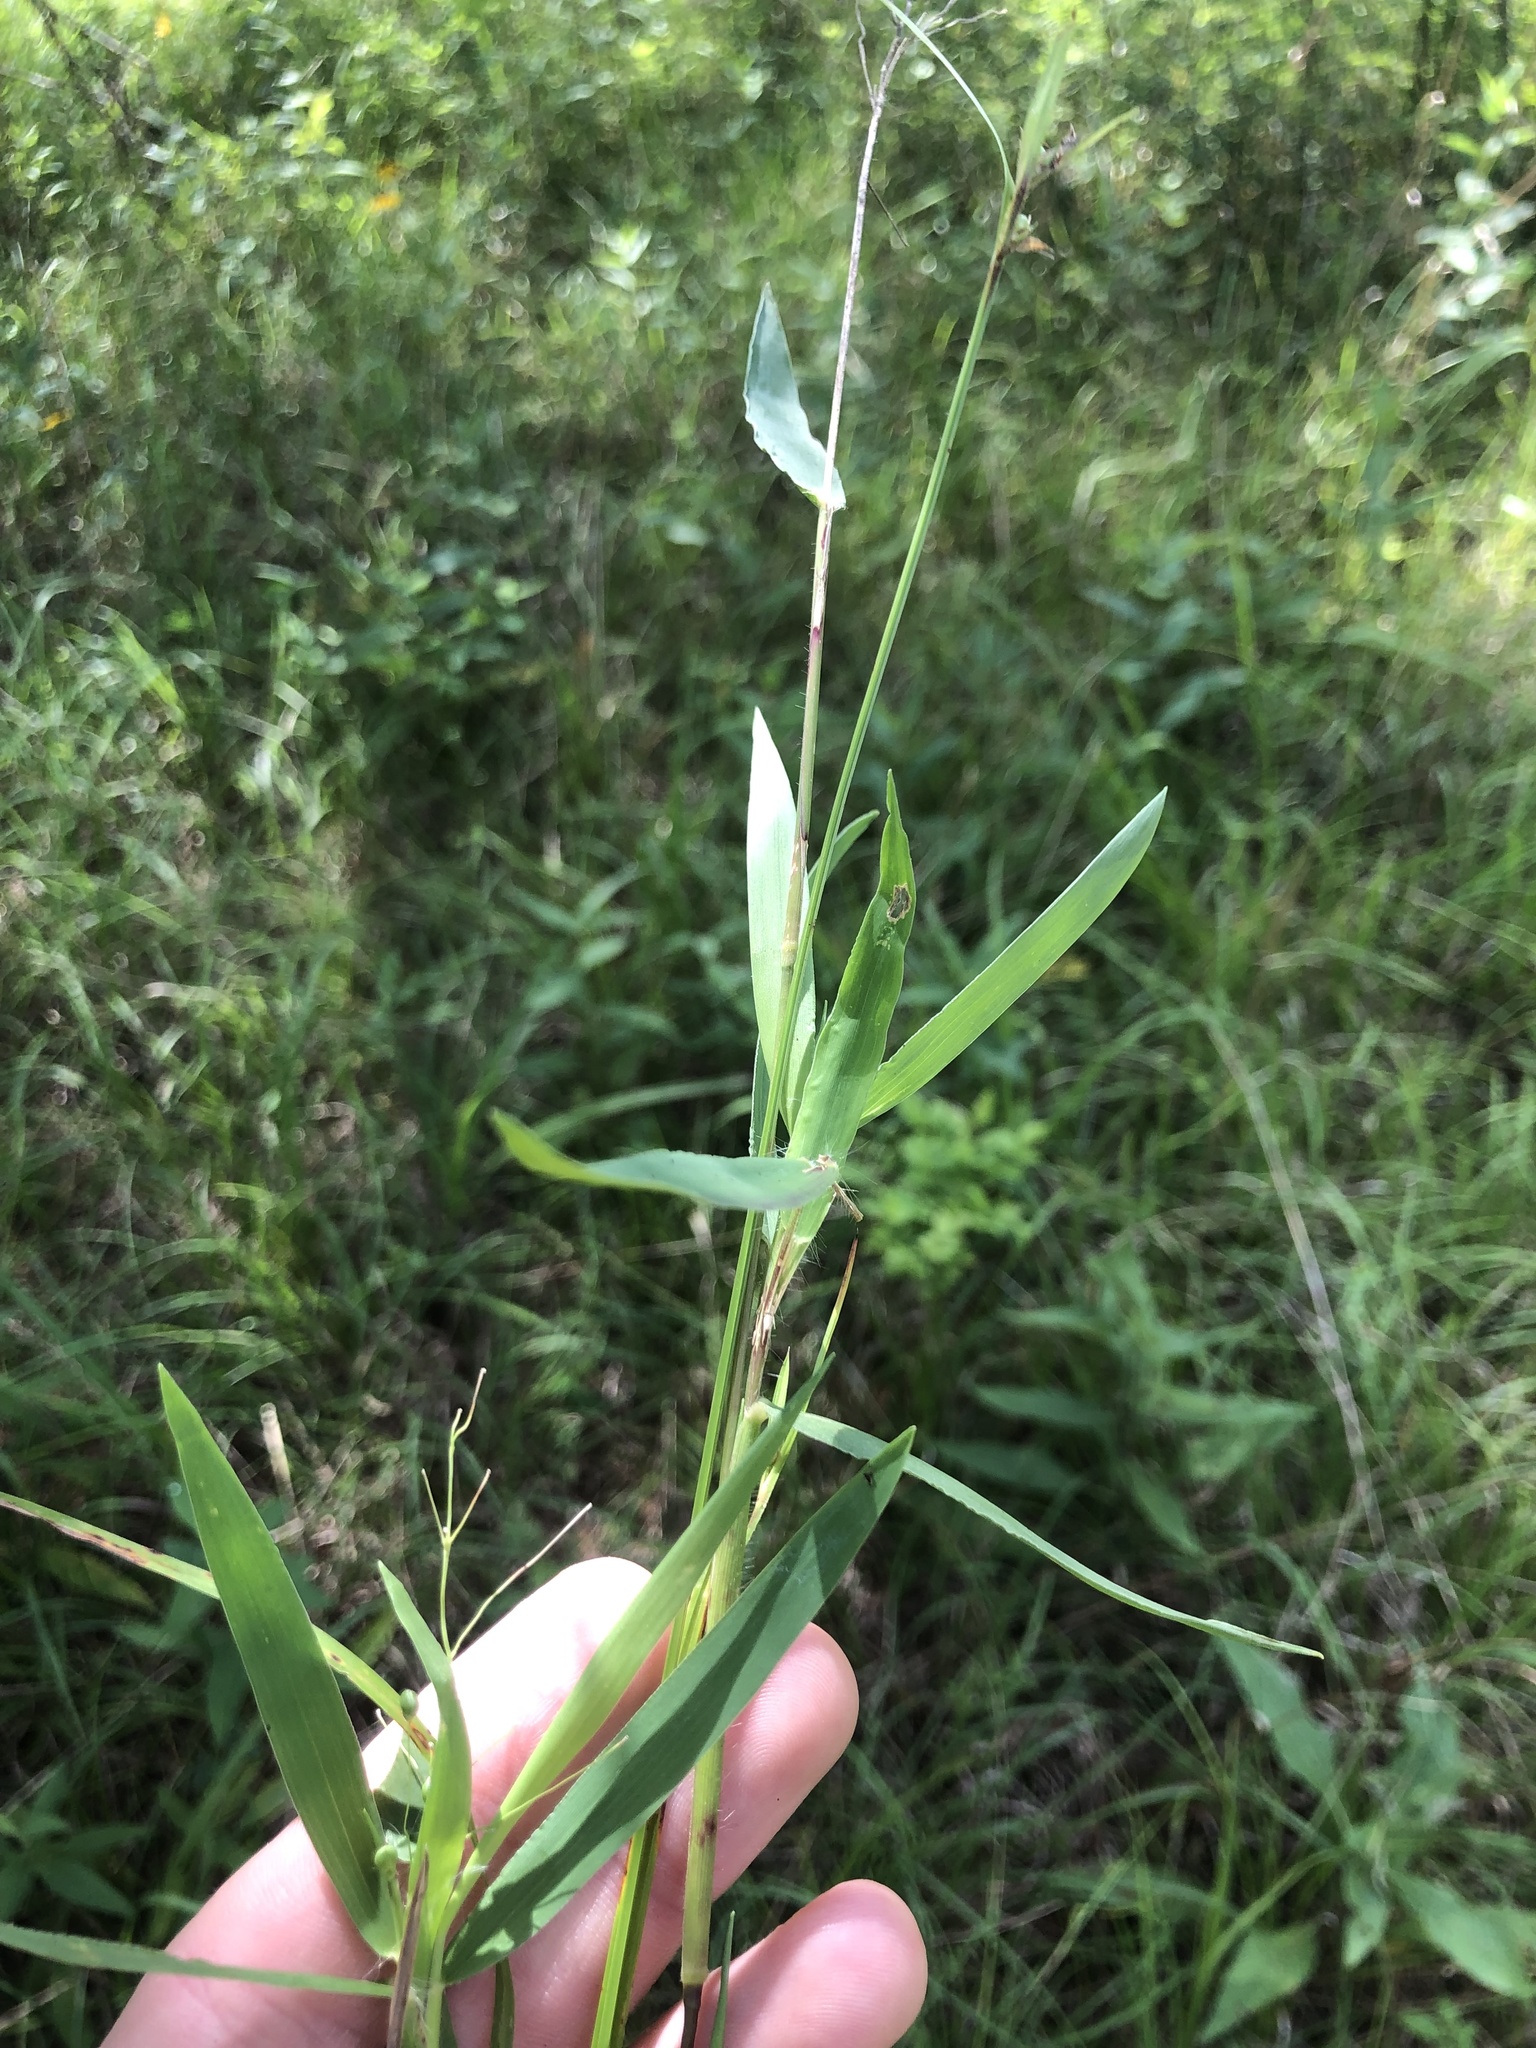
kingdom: Plantae
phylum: Tracheophyta
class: Liliopsida
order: Poales
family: Poaceae
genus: Dichanthelium
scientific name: Dichanthelium scribnerianum
